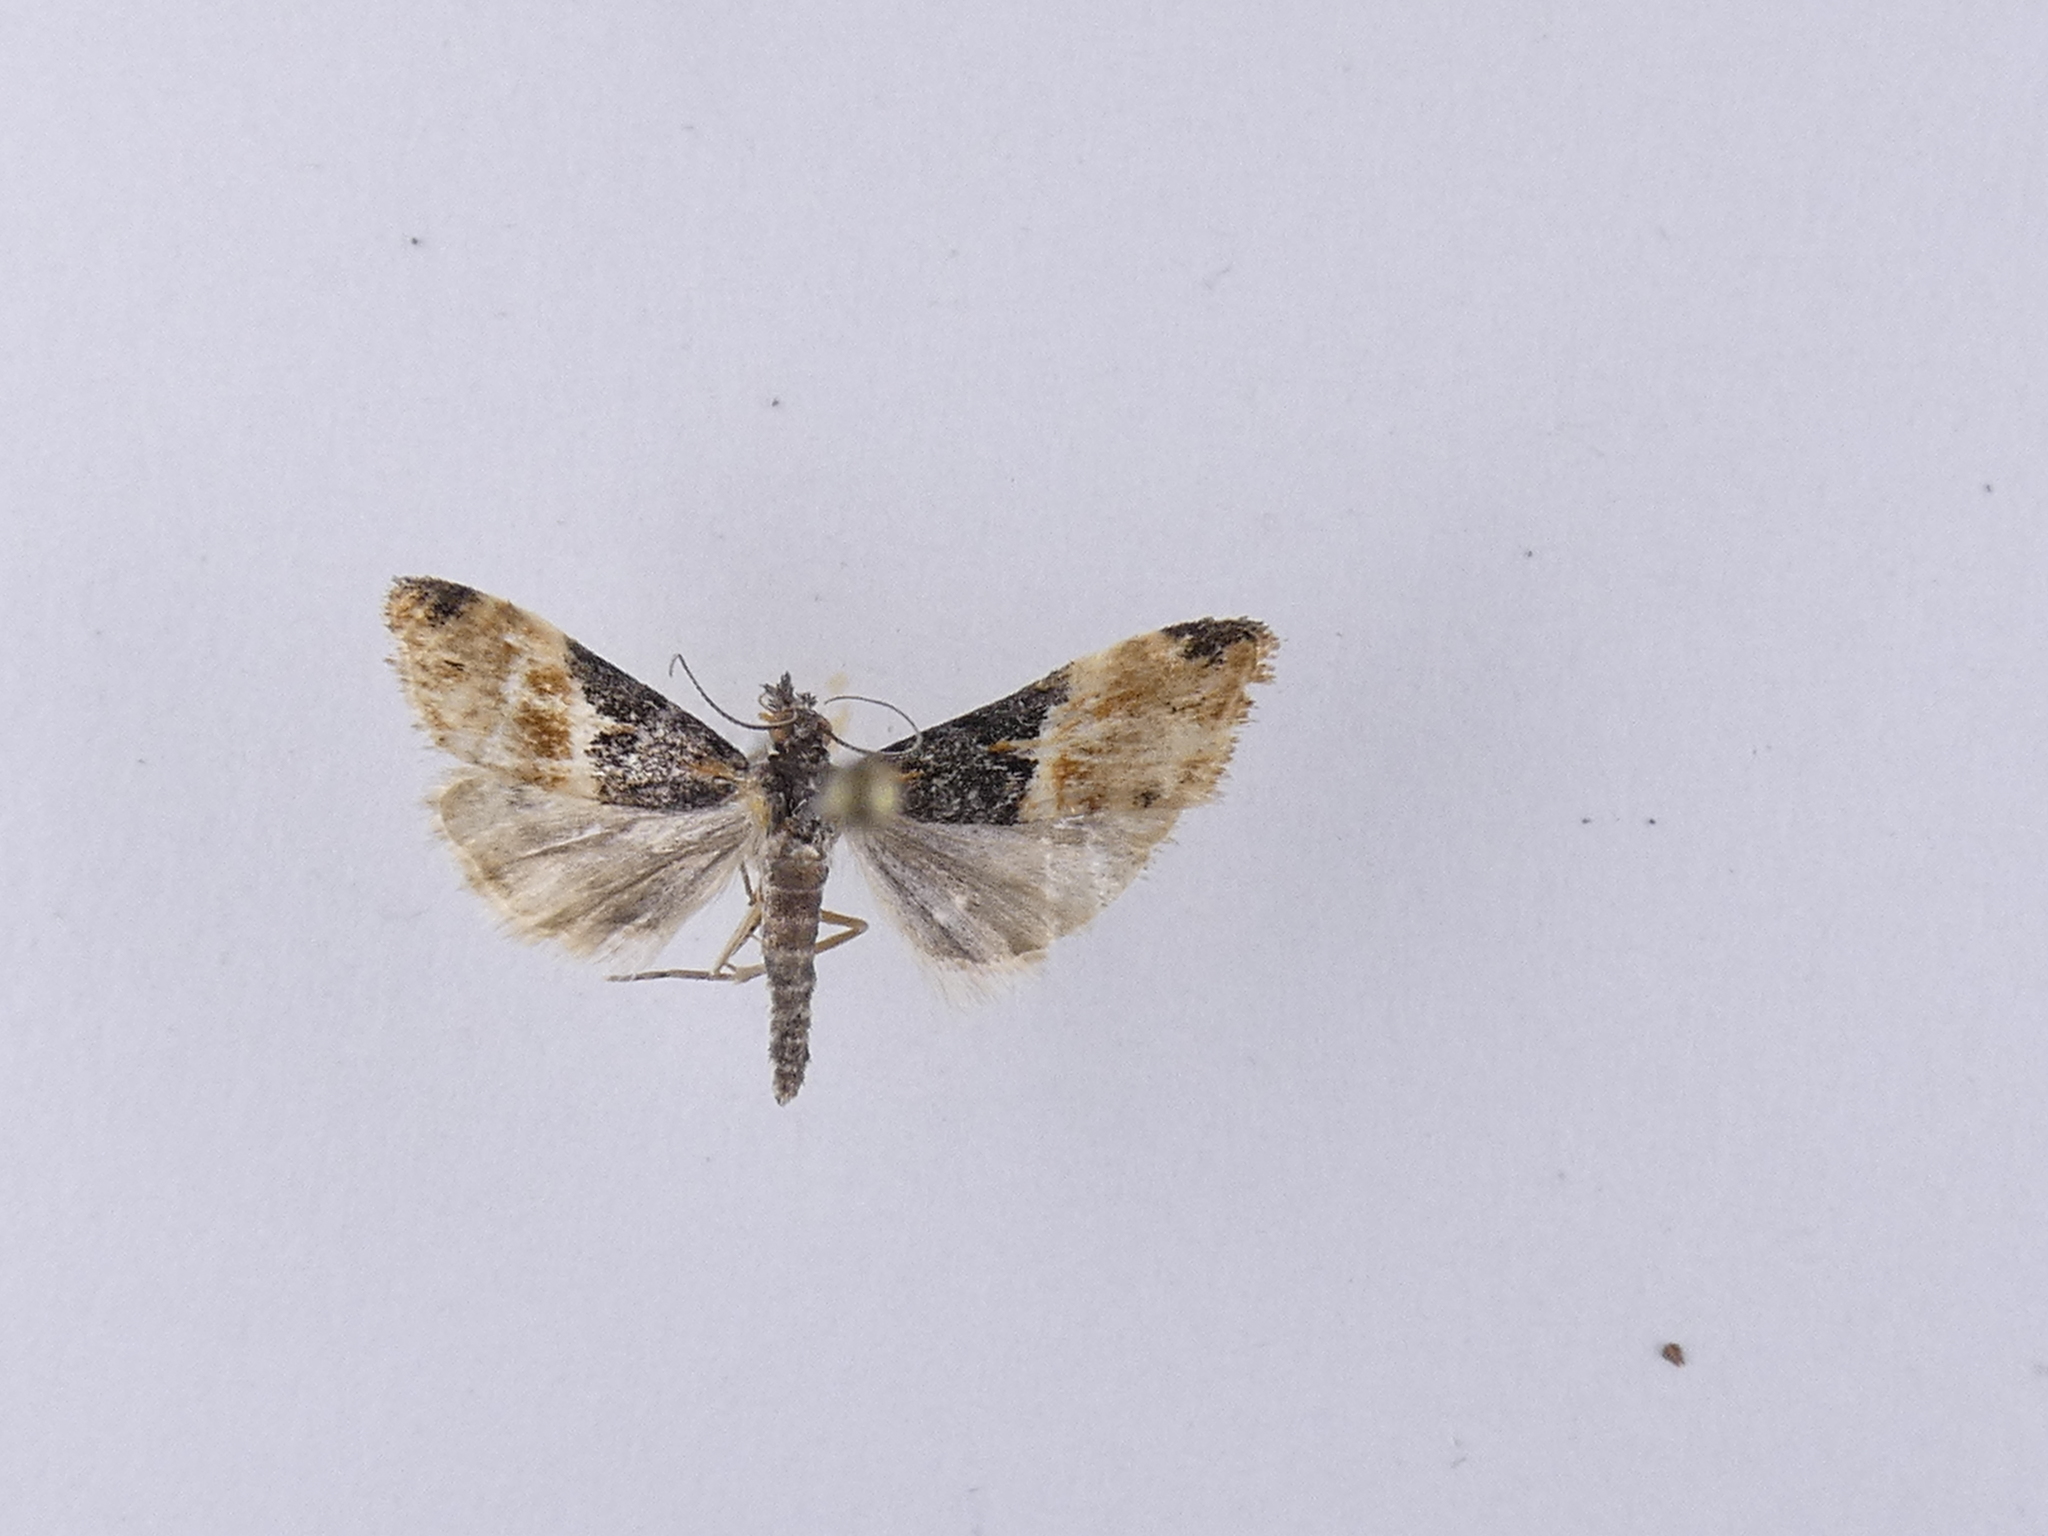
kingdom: Animalia
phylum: Arthropoda
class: Insecta
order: Lepidoptera
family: Crambidae
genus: Eudonia
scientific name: Eudonia chlamydota
